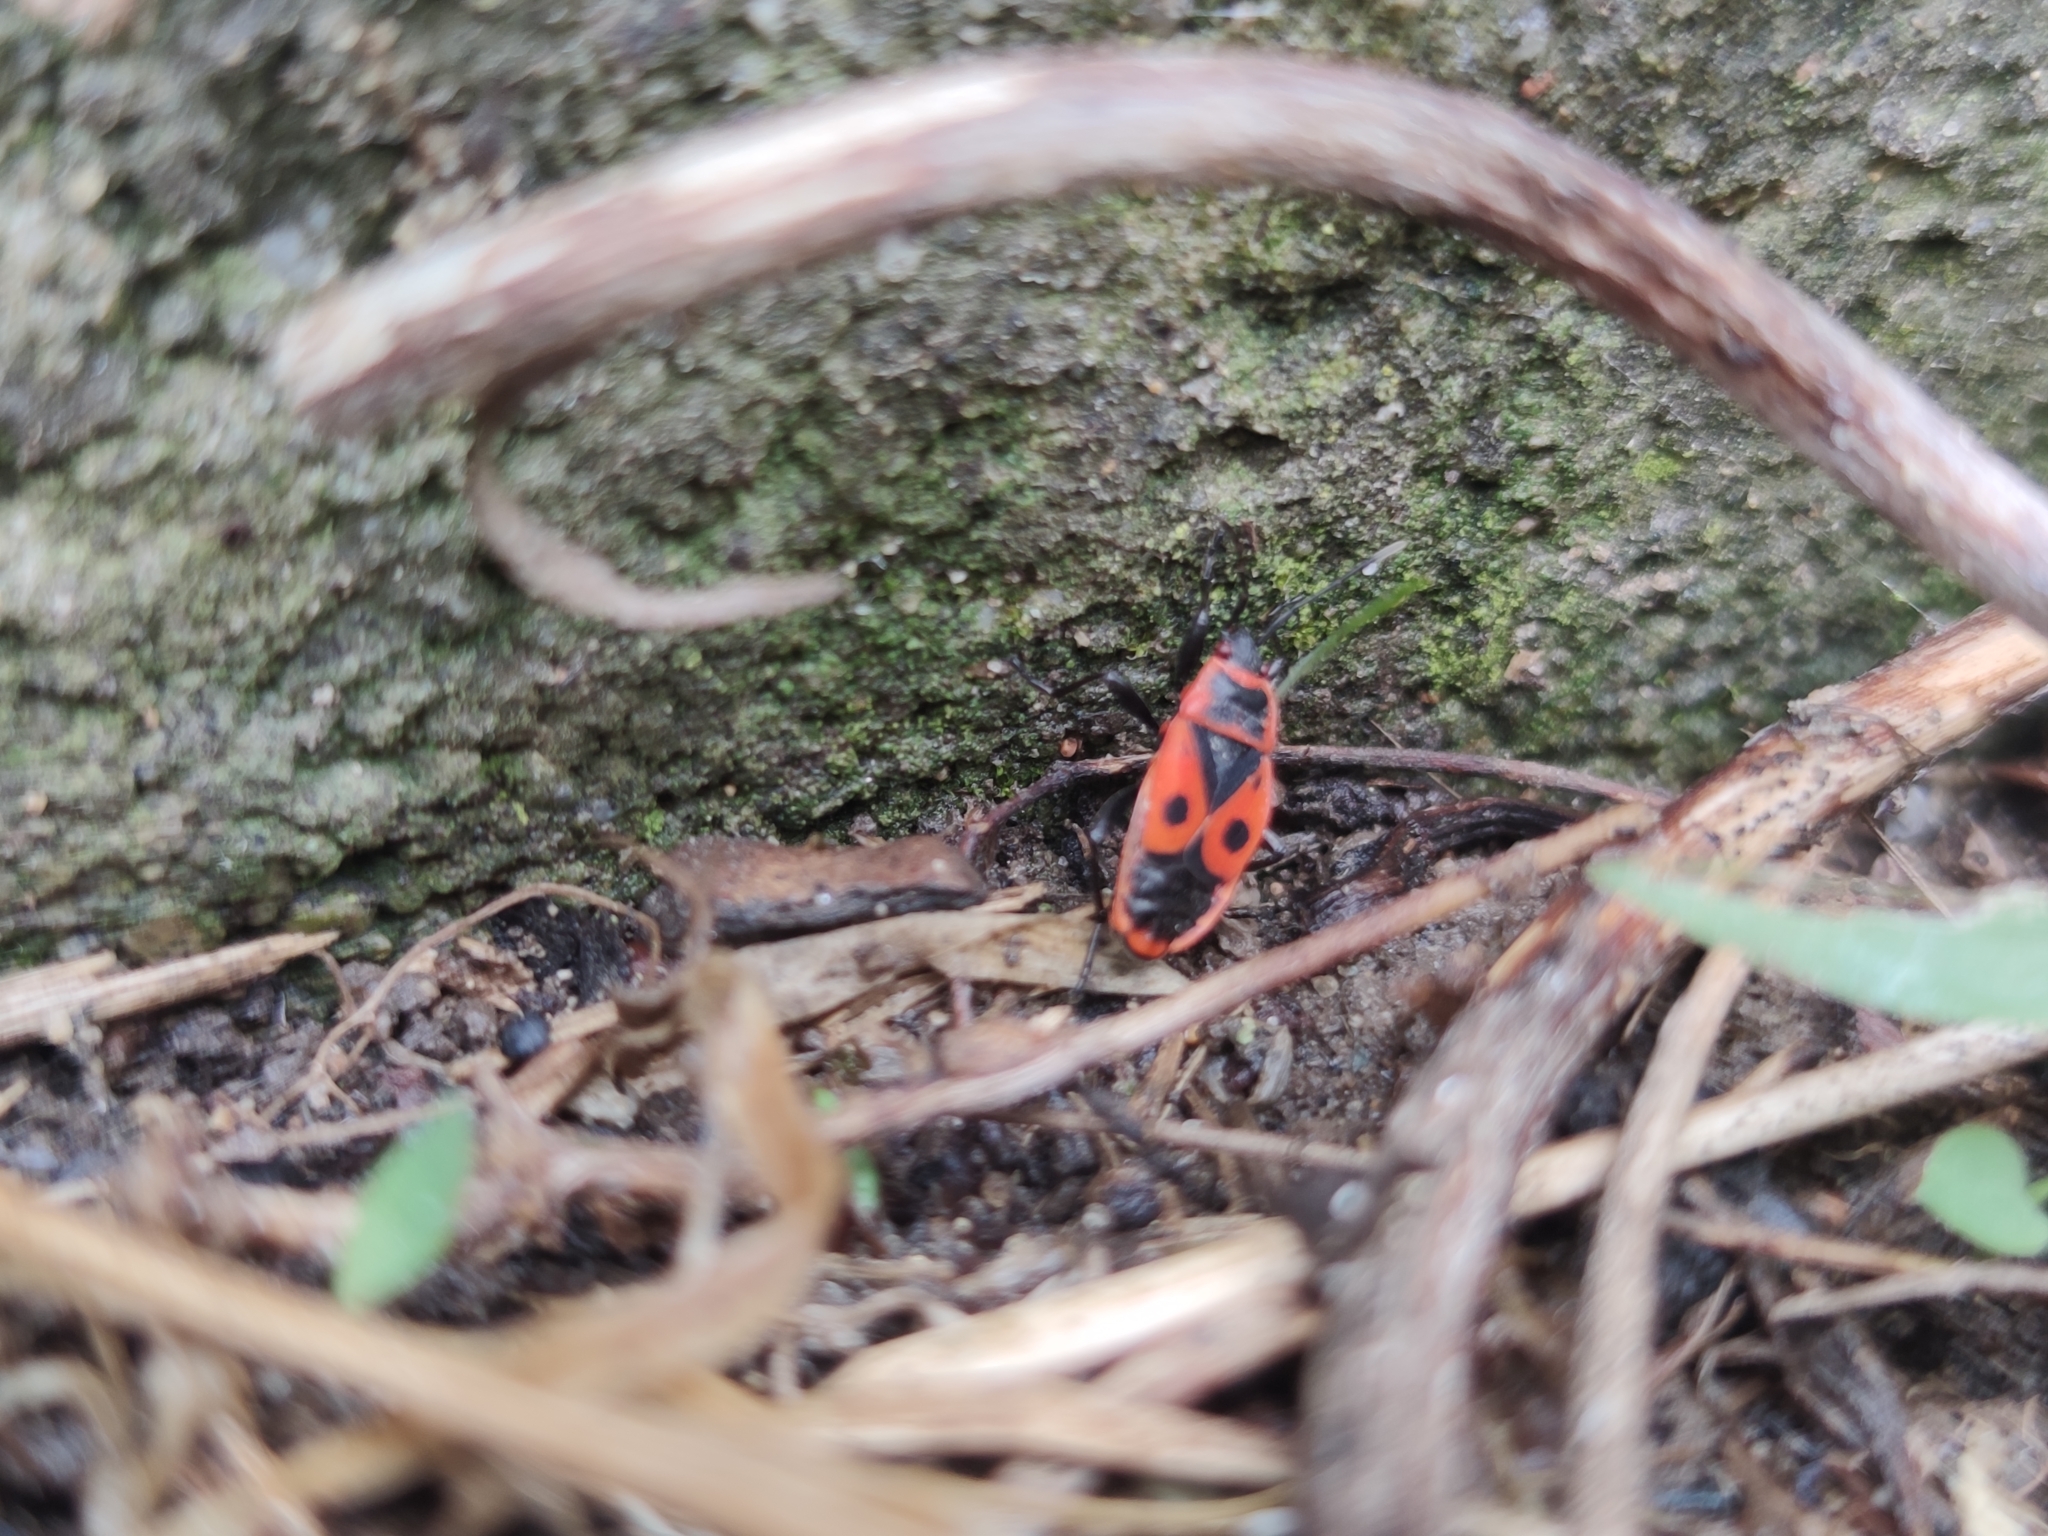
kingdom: Animalia
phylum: Arthropoda
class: Insecta
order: Hemiptera
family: Pyrrhocoridae
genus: Pyrrhocoris
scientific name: Pyrrhocoris apterus
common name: Firebug
